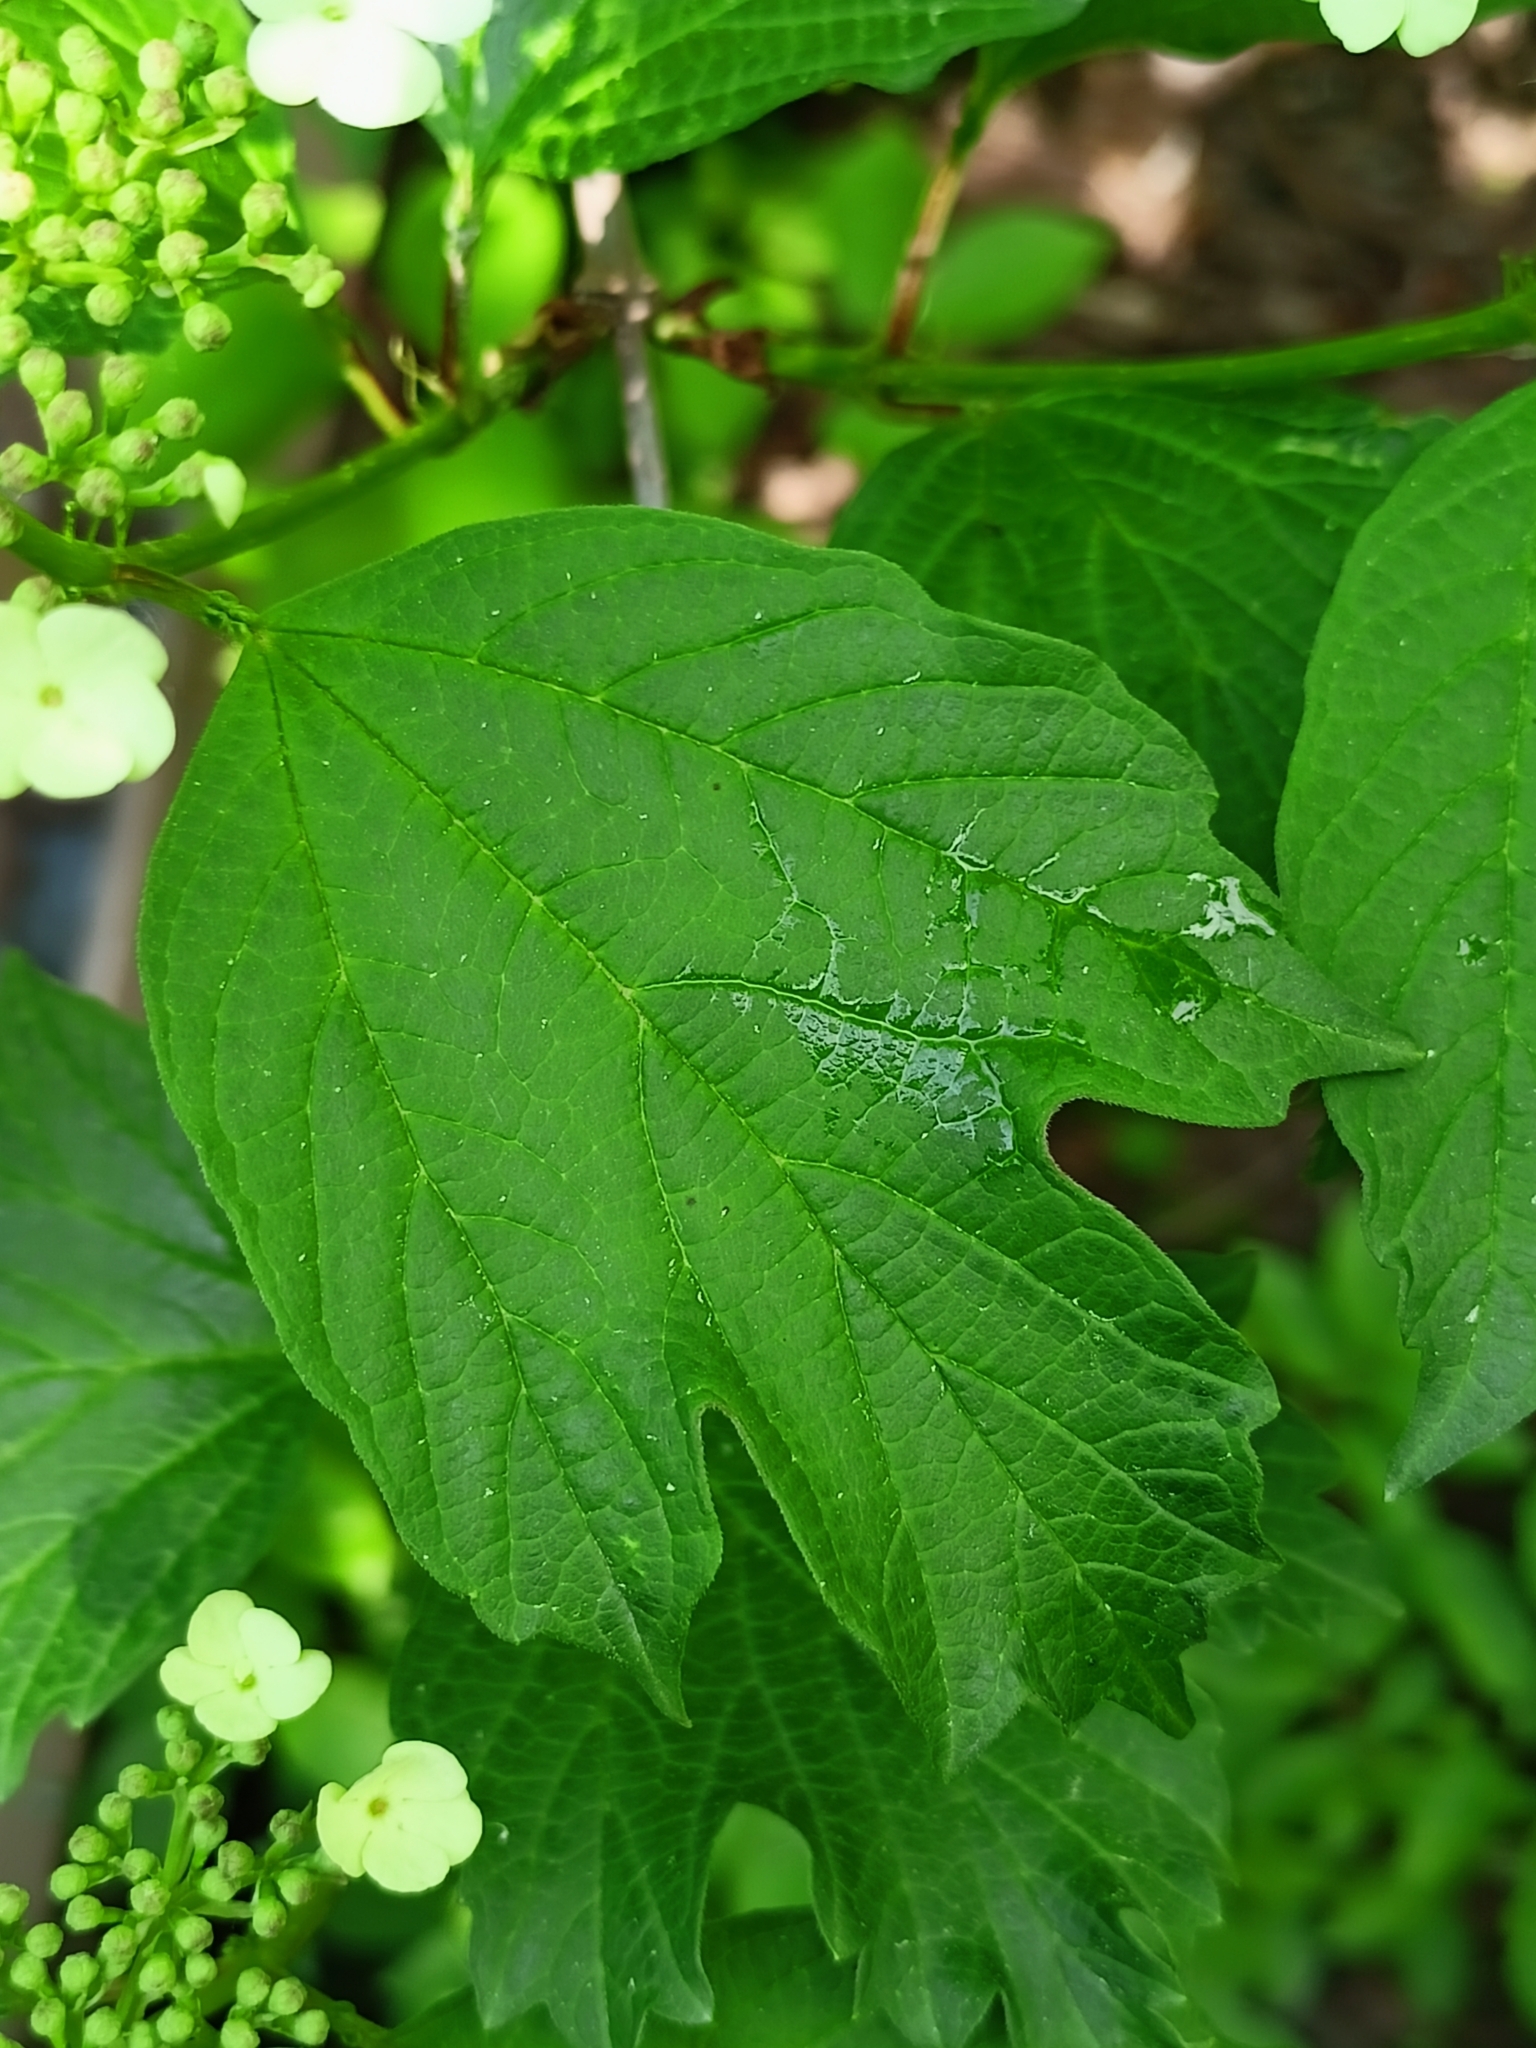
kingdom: Plantae
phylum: Tracheophyta
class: Magnoliopsida
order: Dipsacales
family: Viburnaceae
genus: Viburnum
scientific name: Viburnum opulus
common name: Guelder-rose
